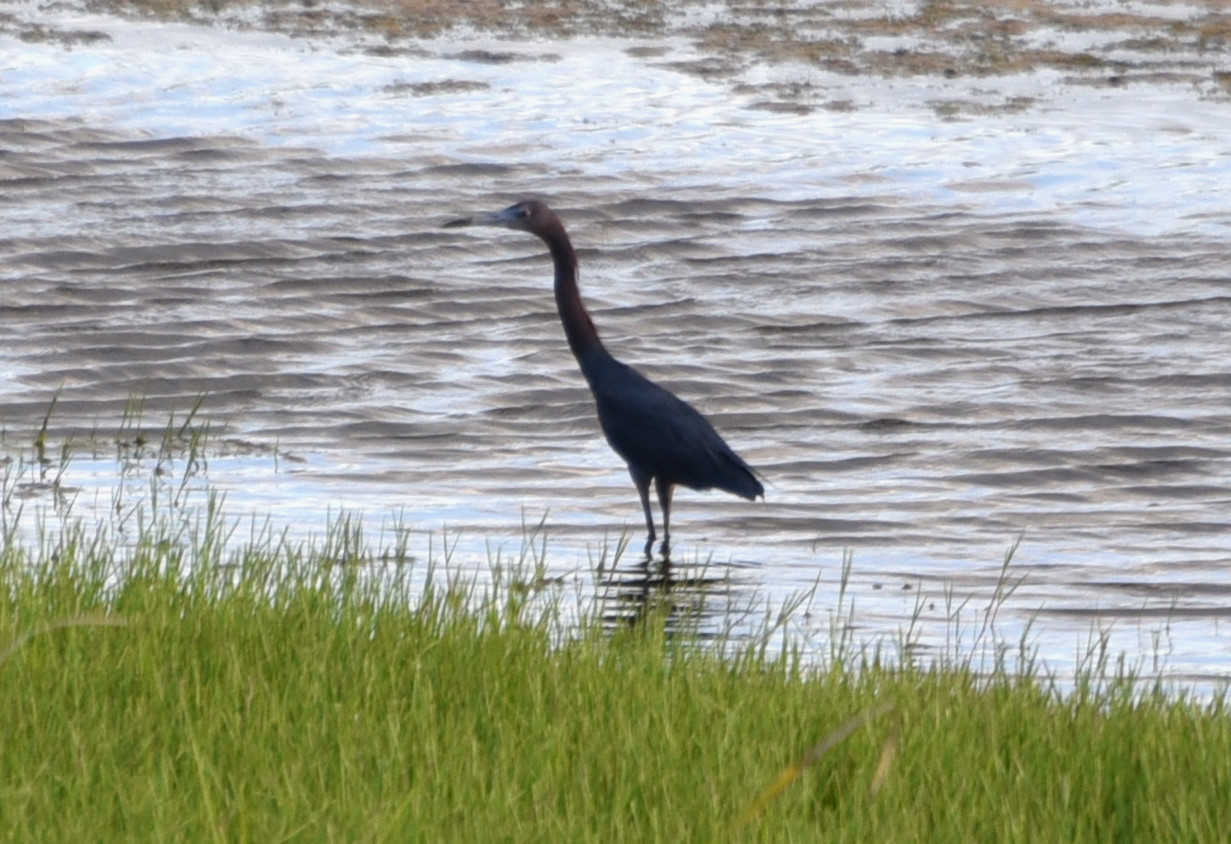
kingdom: Animalia
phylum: Chordata
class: Aves
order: Pelecaniformes
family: Ardeidae
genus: Egretta
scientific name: Egretta caerulea
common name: Little blue heron
